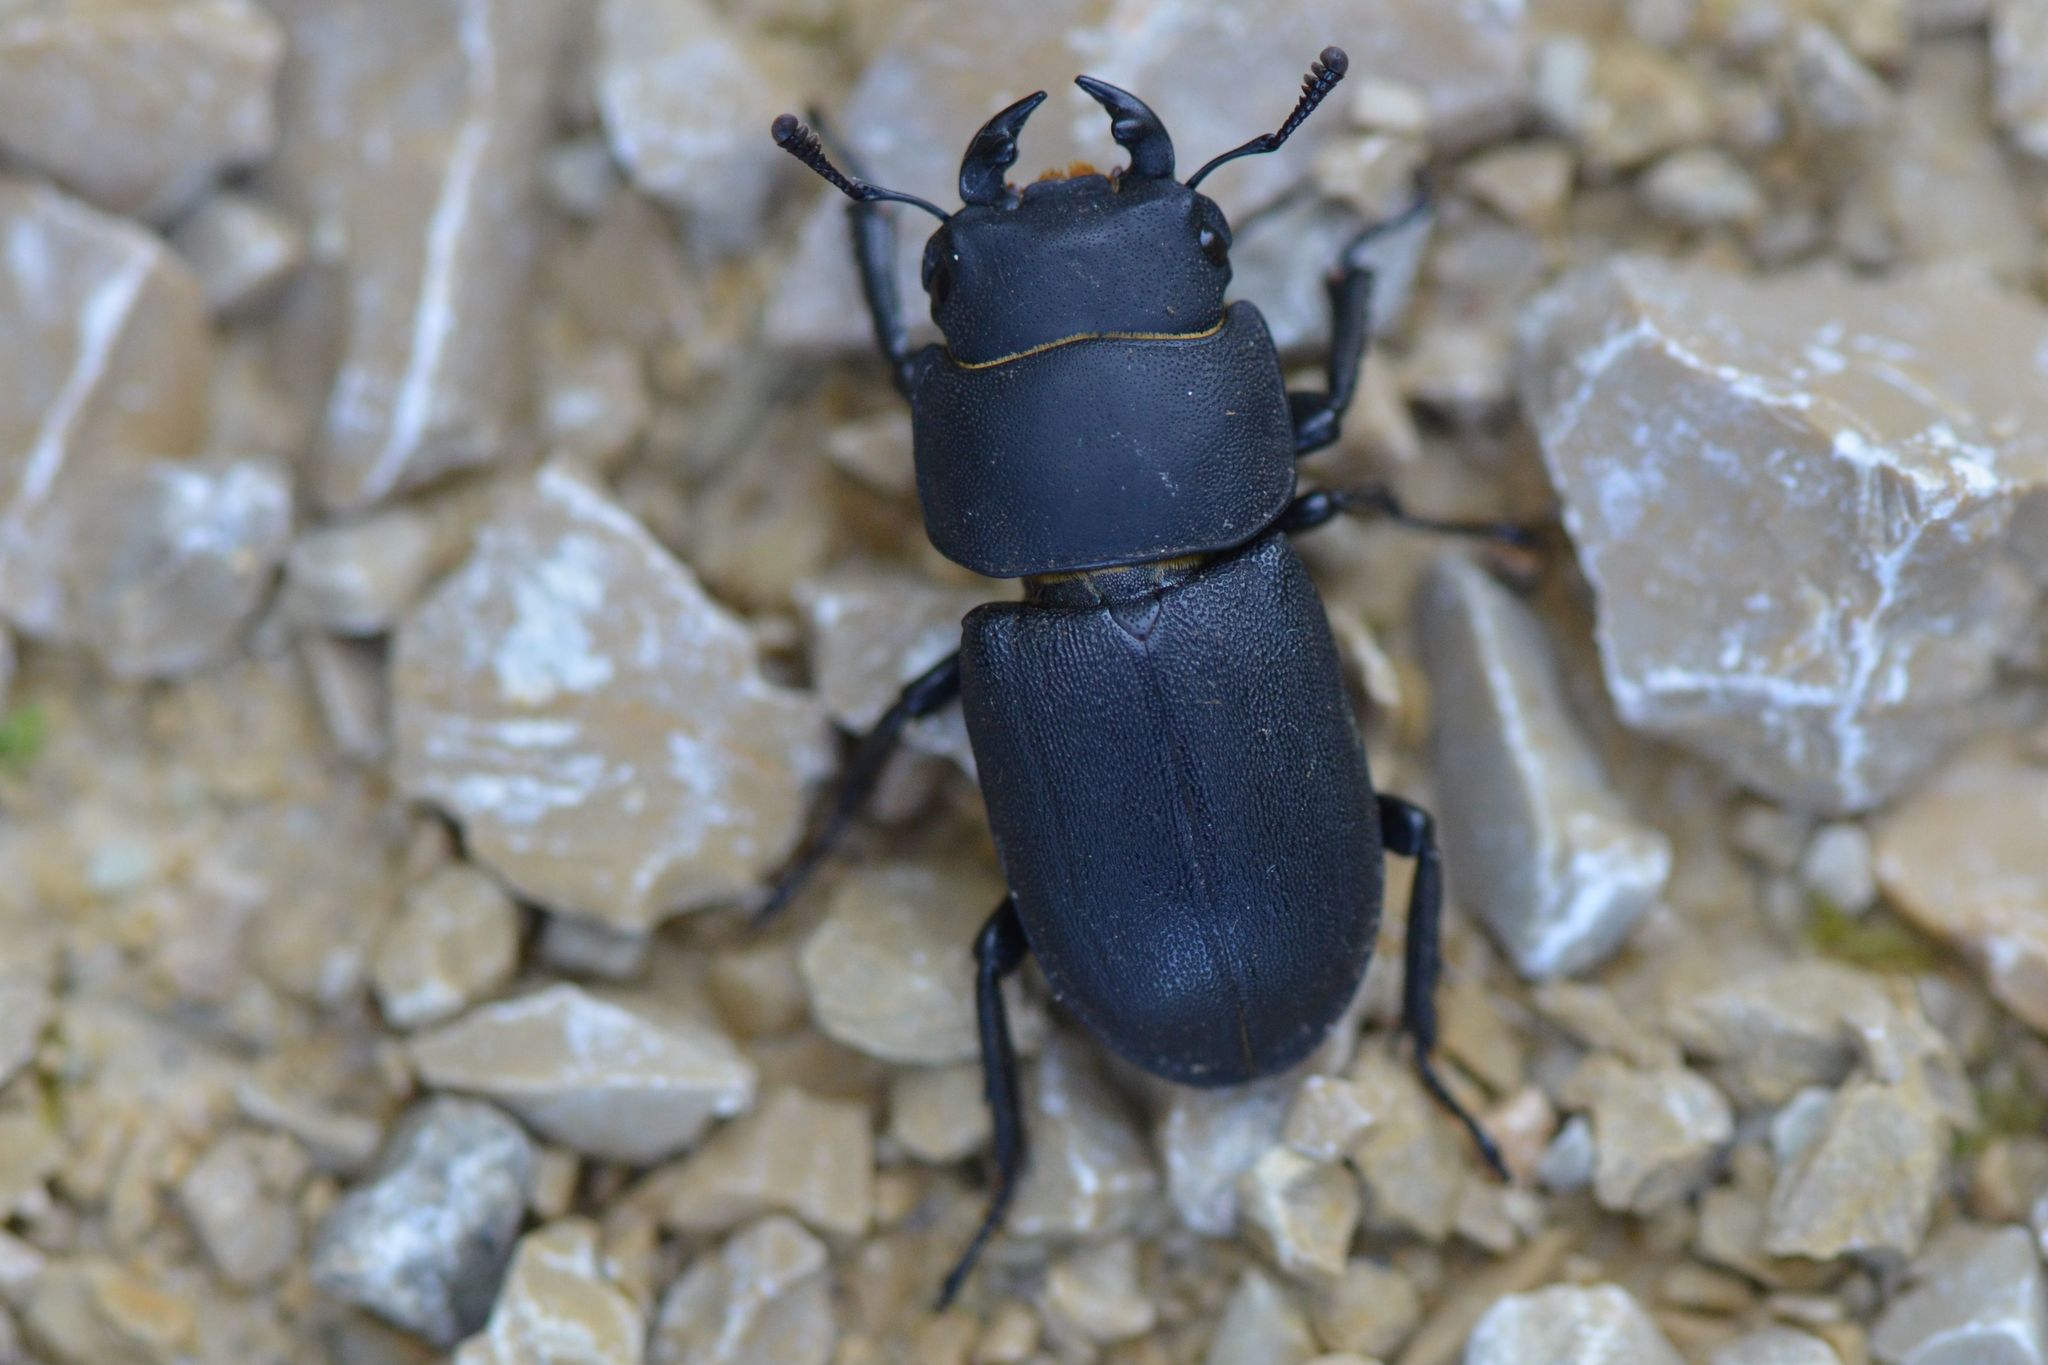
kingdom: Animalia
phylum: Arthropoda
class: Insecta
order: Coleoptera
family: Lucanidae
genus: Dorcus
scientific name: Dorcus parallelipipedus
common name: Lesser stag beetle
